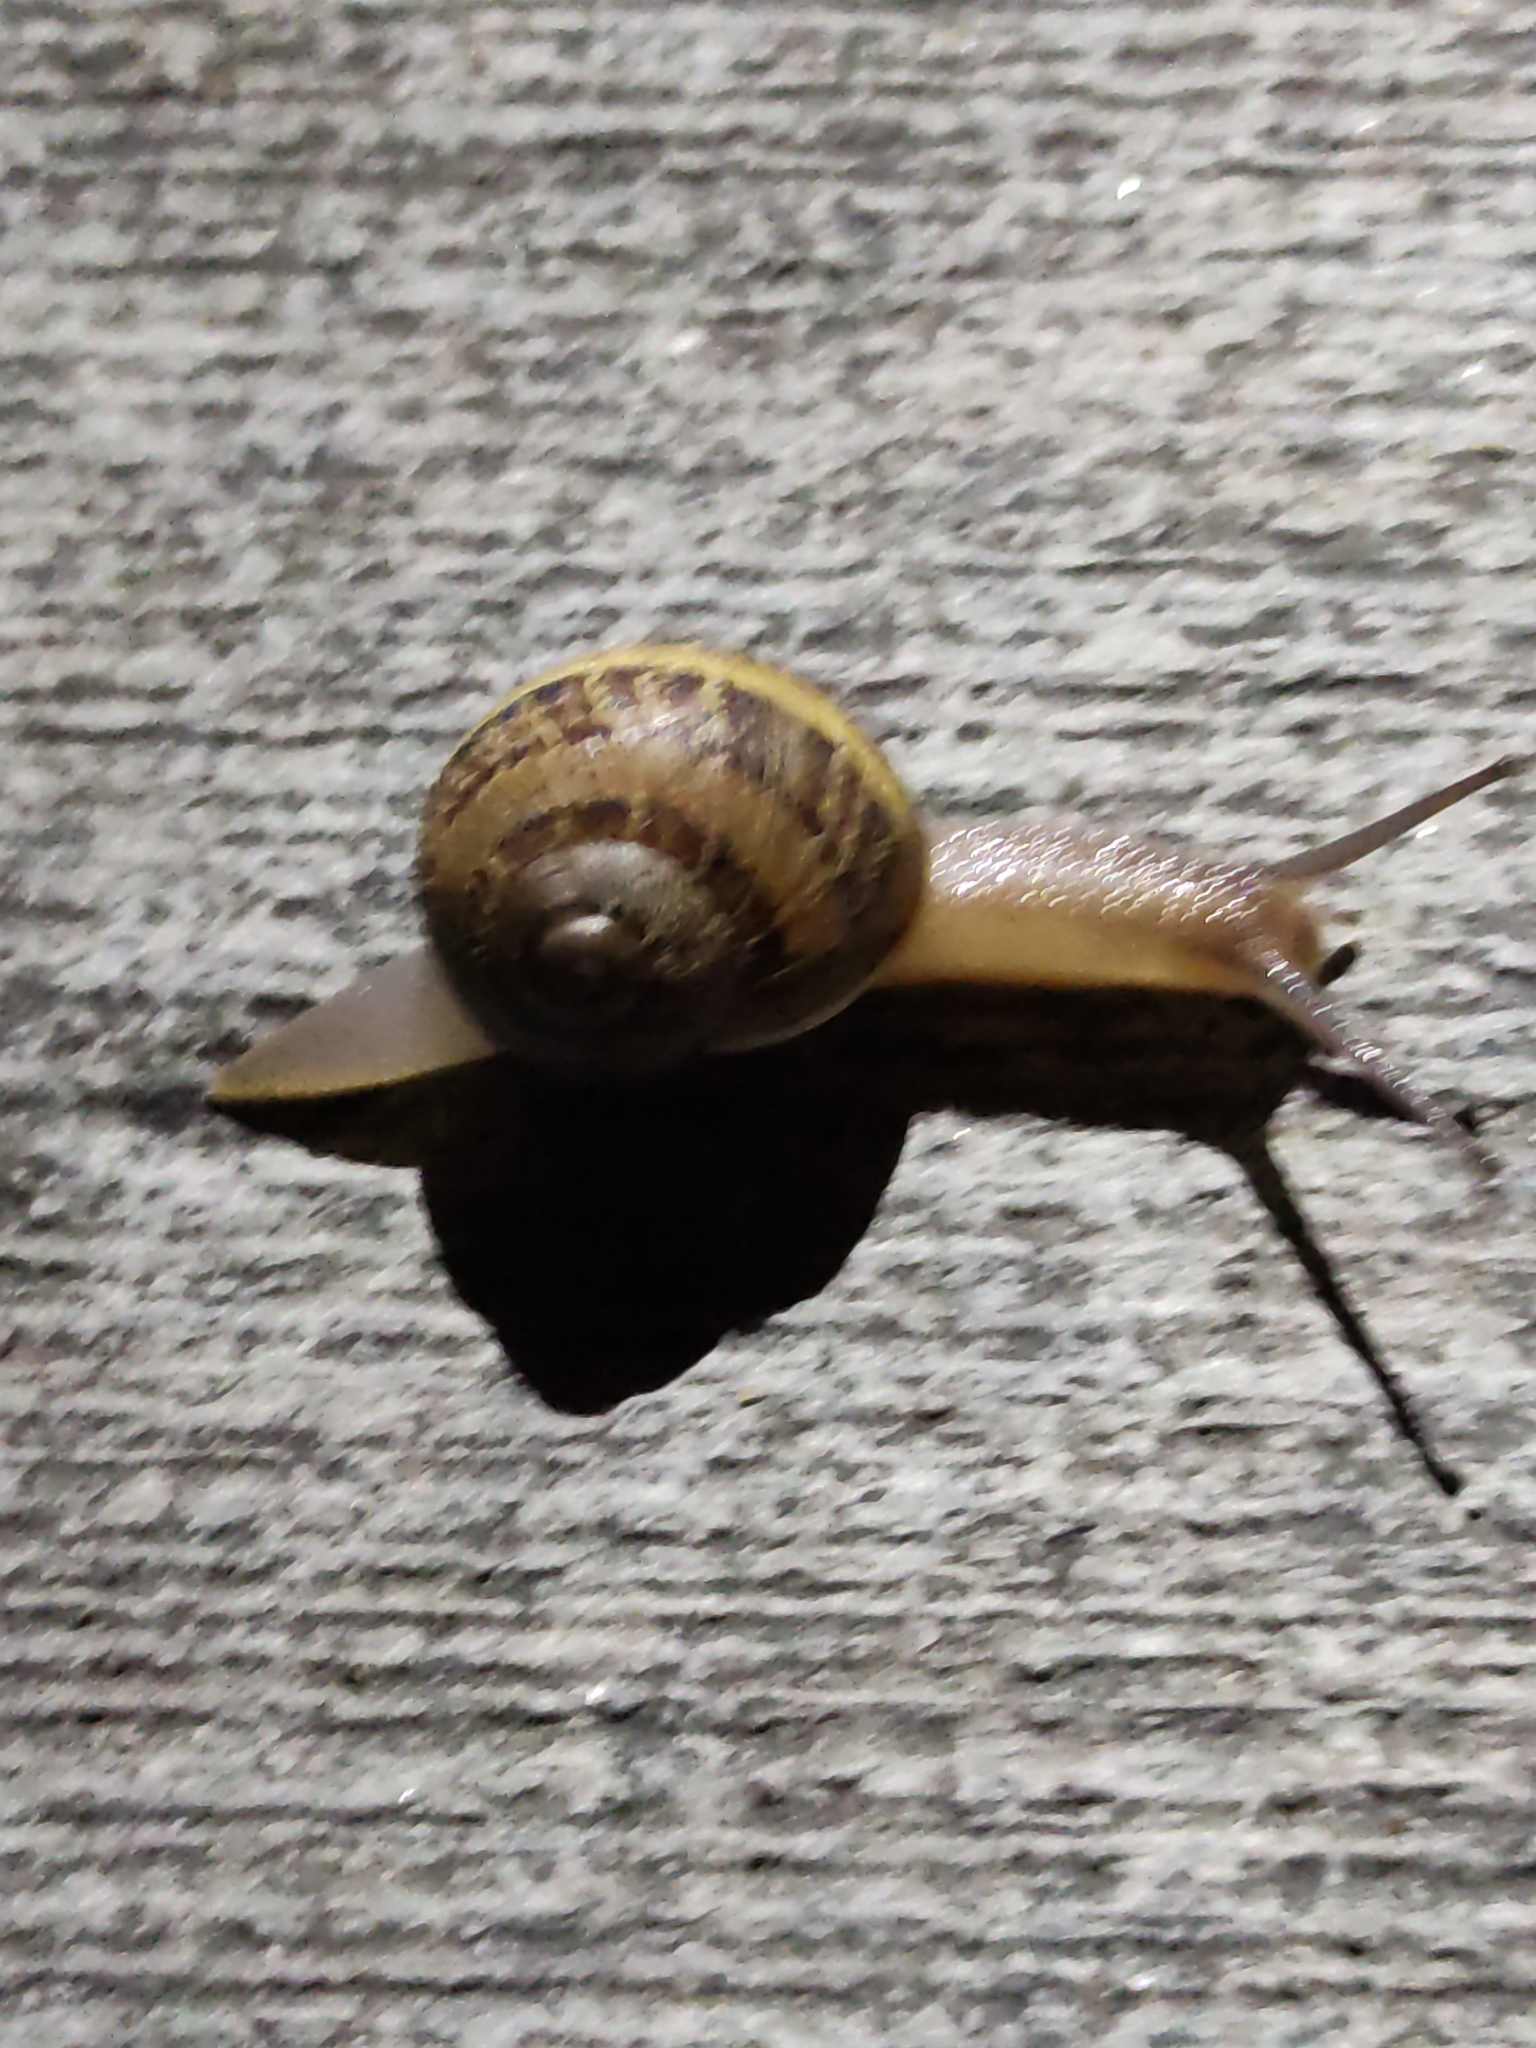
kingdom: Animalia
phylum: Mollusca
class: Gastropoda
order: Stylommatophora
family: Helicidae
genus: Cornu
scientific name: Cornu aspersum
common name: Brown garden snail
